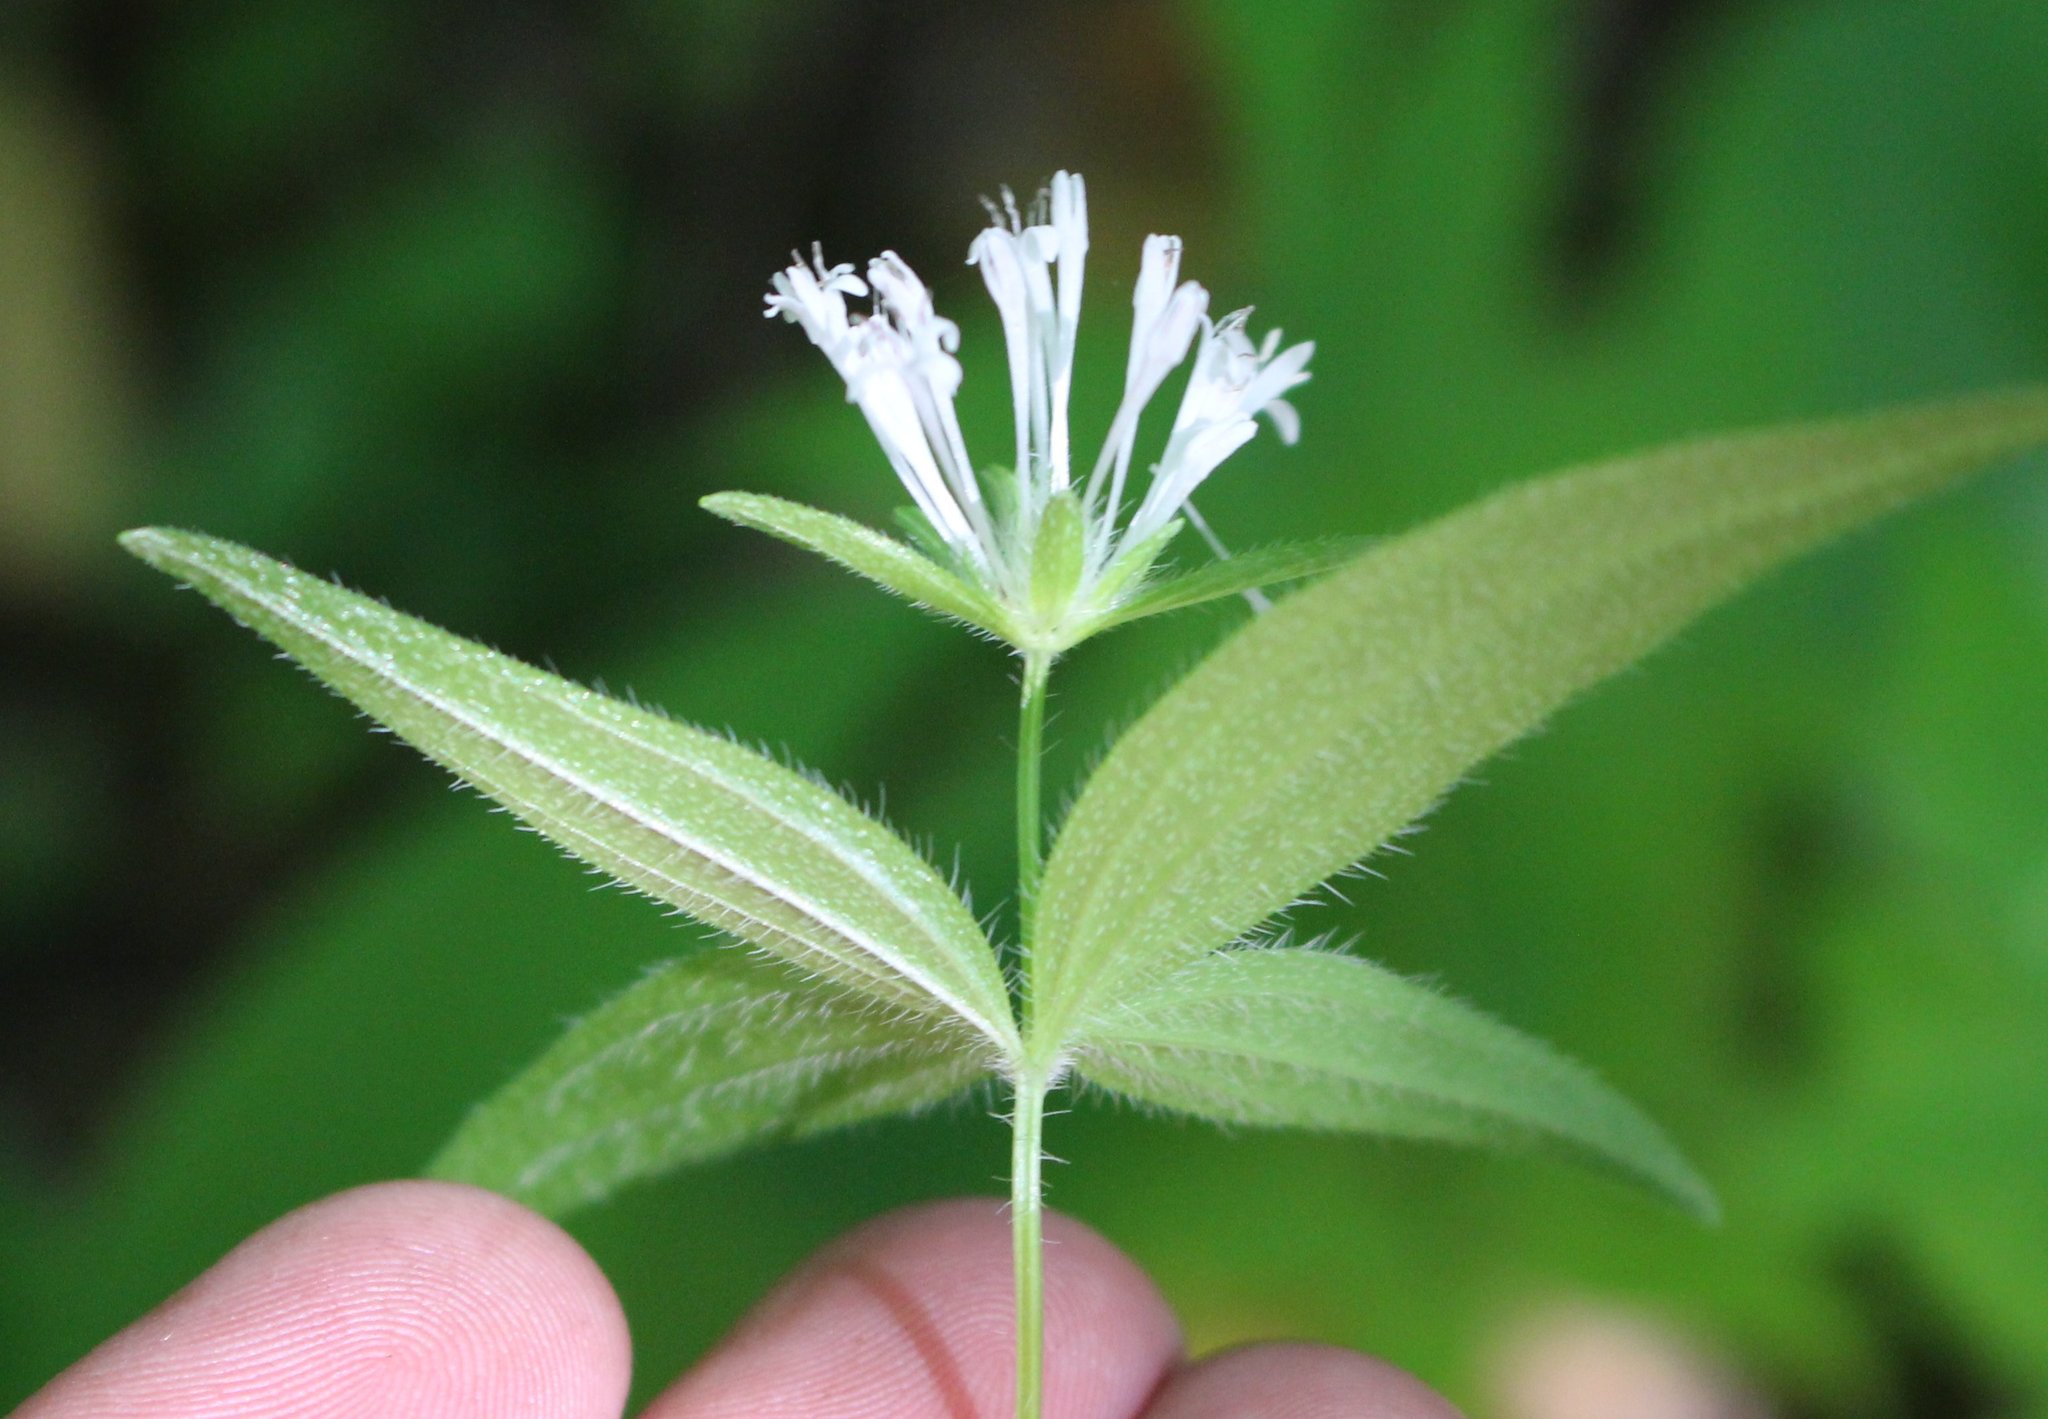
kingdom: Plantae
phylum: Tracheophyta
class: Magnoliopsida
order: Gentianales
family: Rubiaceae
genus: Asperula
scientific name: Asperula taurina
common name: Pink woodruff
